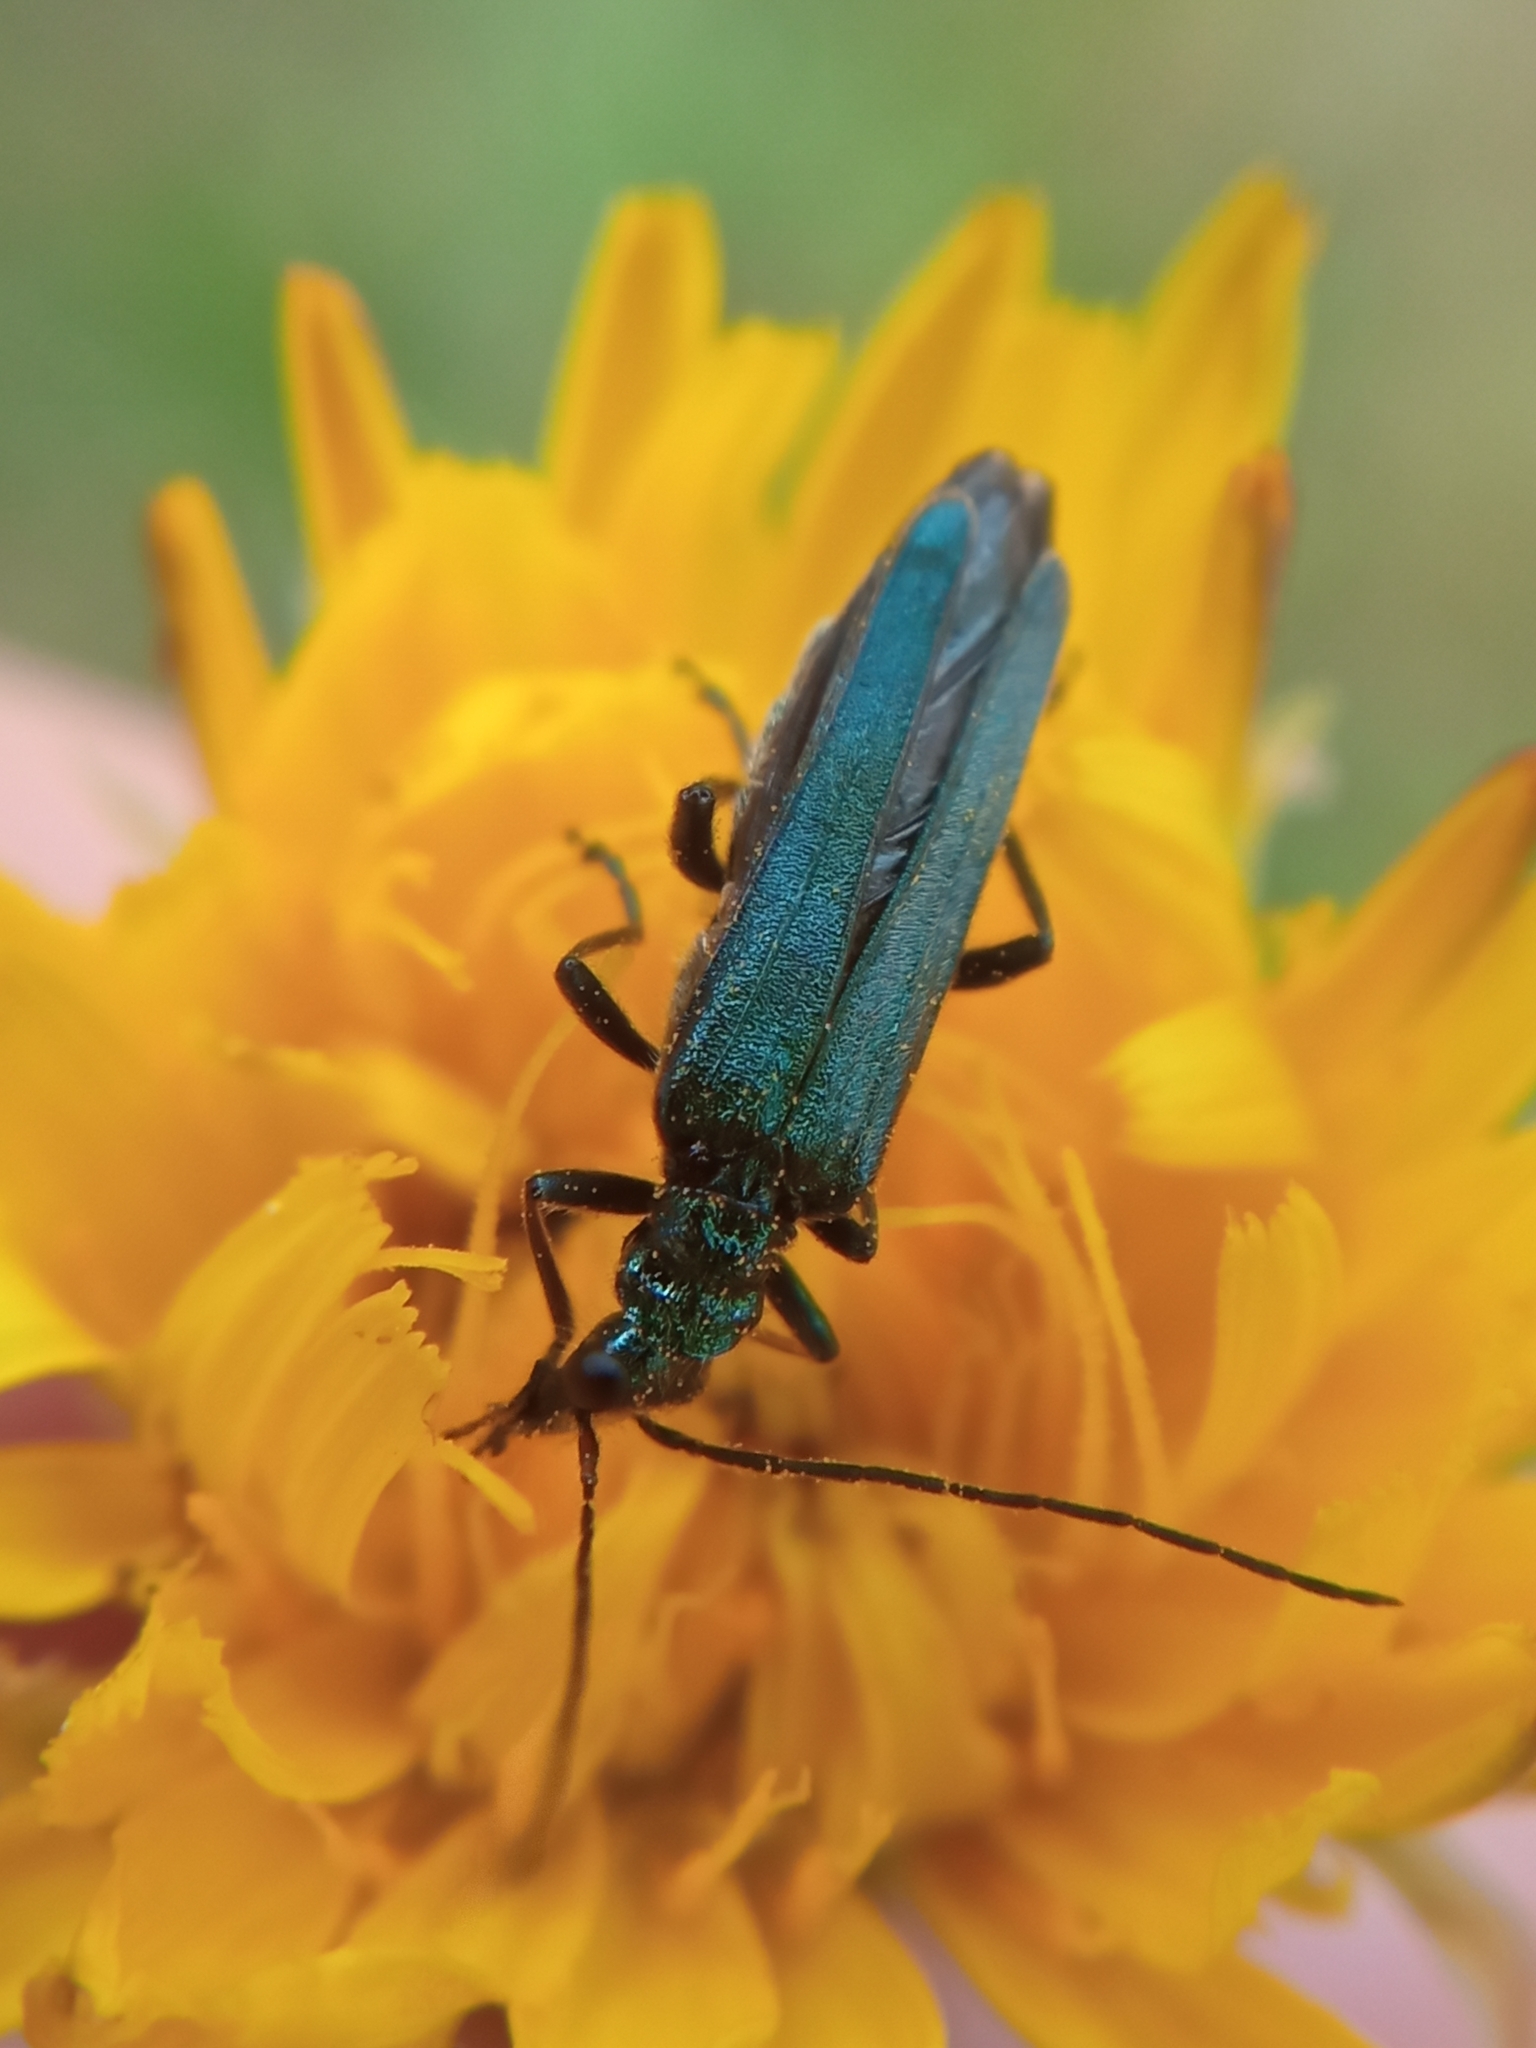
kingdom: Animalia
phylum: Arthropoda
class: Insecta
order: Coleoptera
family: Oedemeridae
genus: Oedemera
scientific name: Oedemera nobilis
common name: Swollen-thighed beetle
